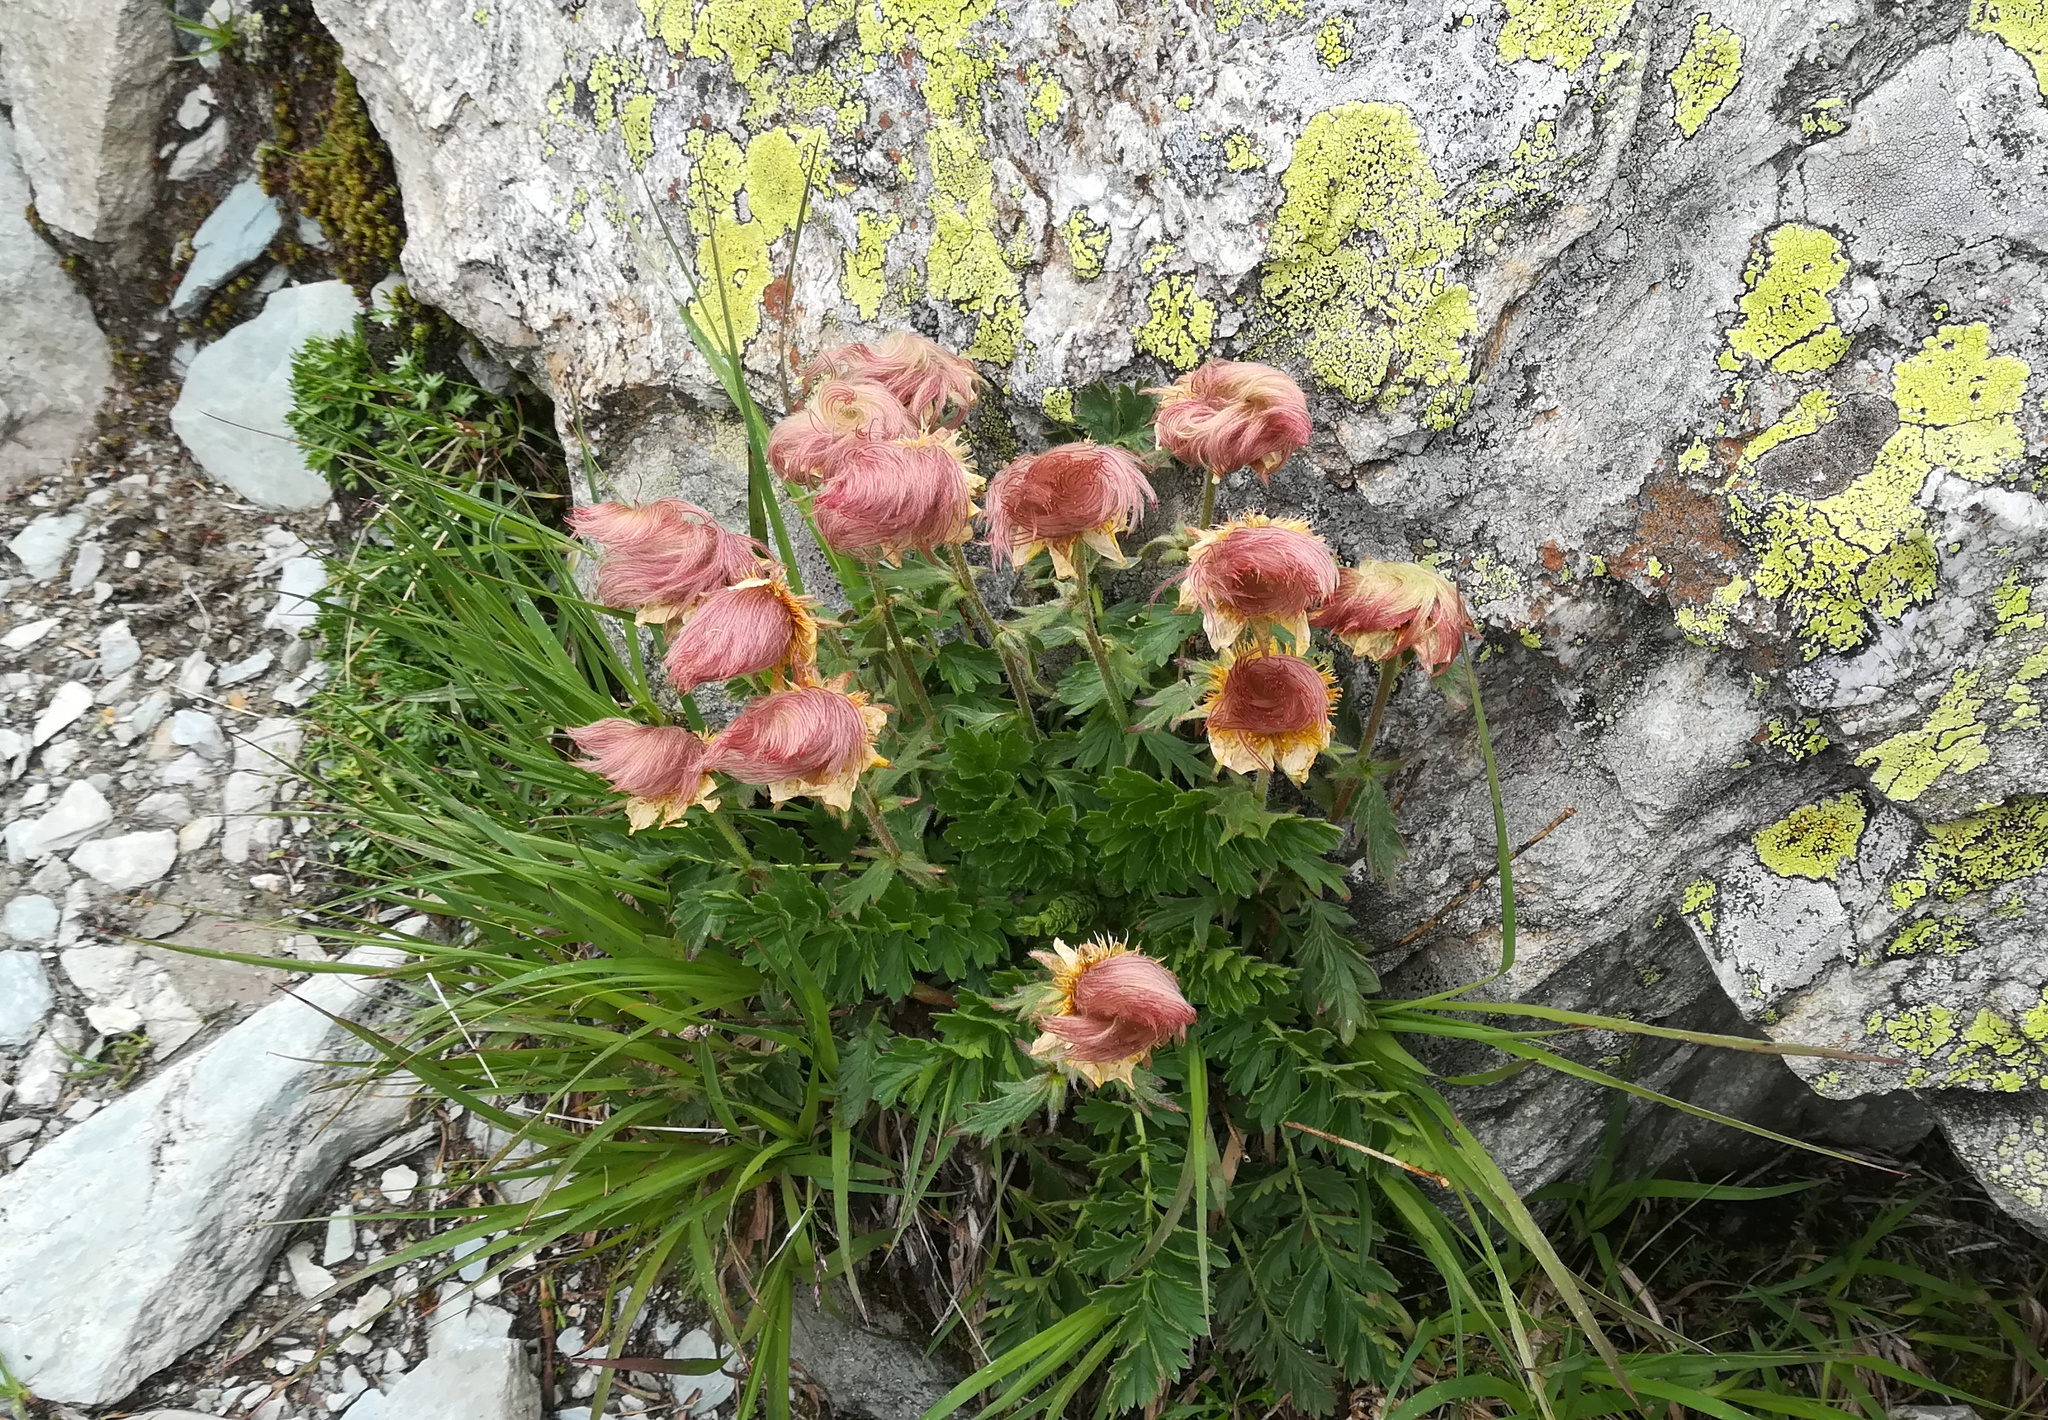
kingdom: Plantae
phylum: Tracheophyta
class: Magnoliopsida
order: Rosales
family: Rosaceae
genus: Geum
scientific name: Geum reptans
